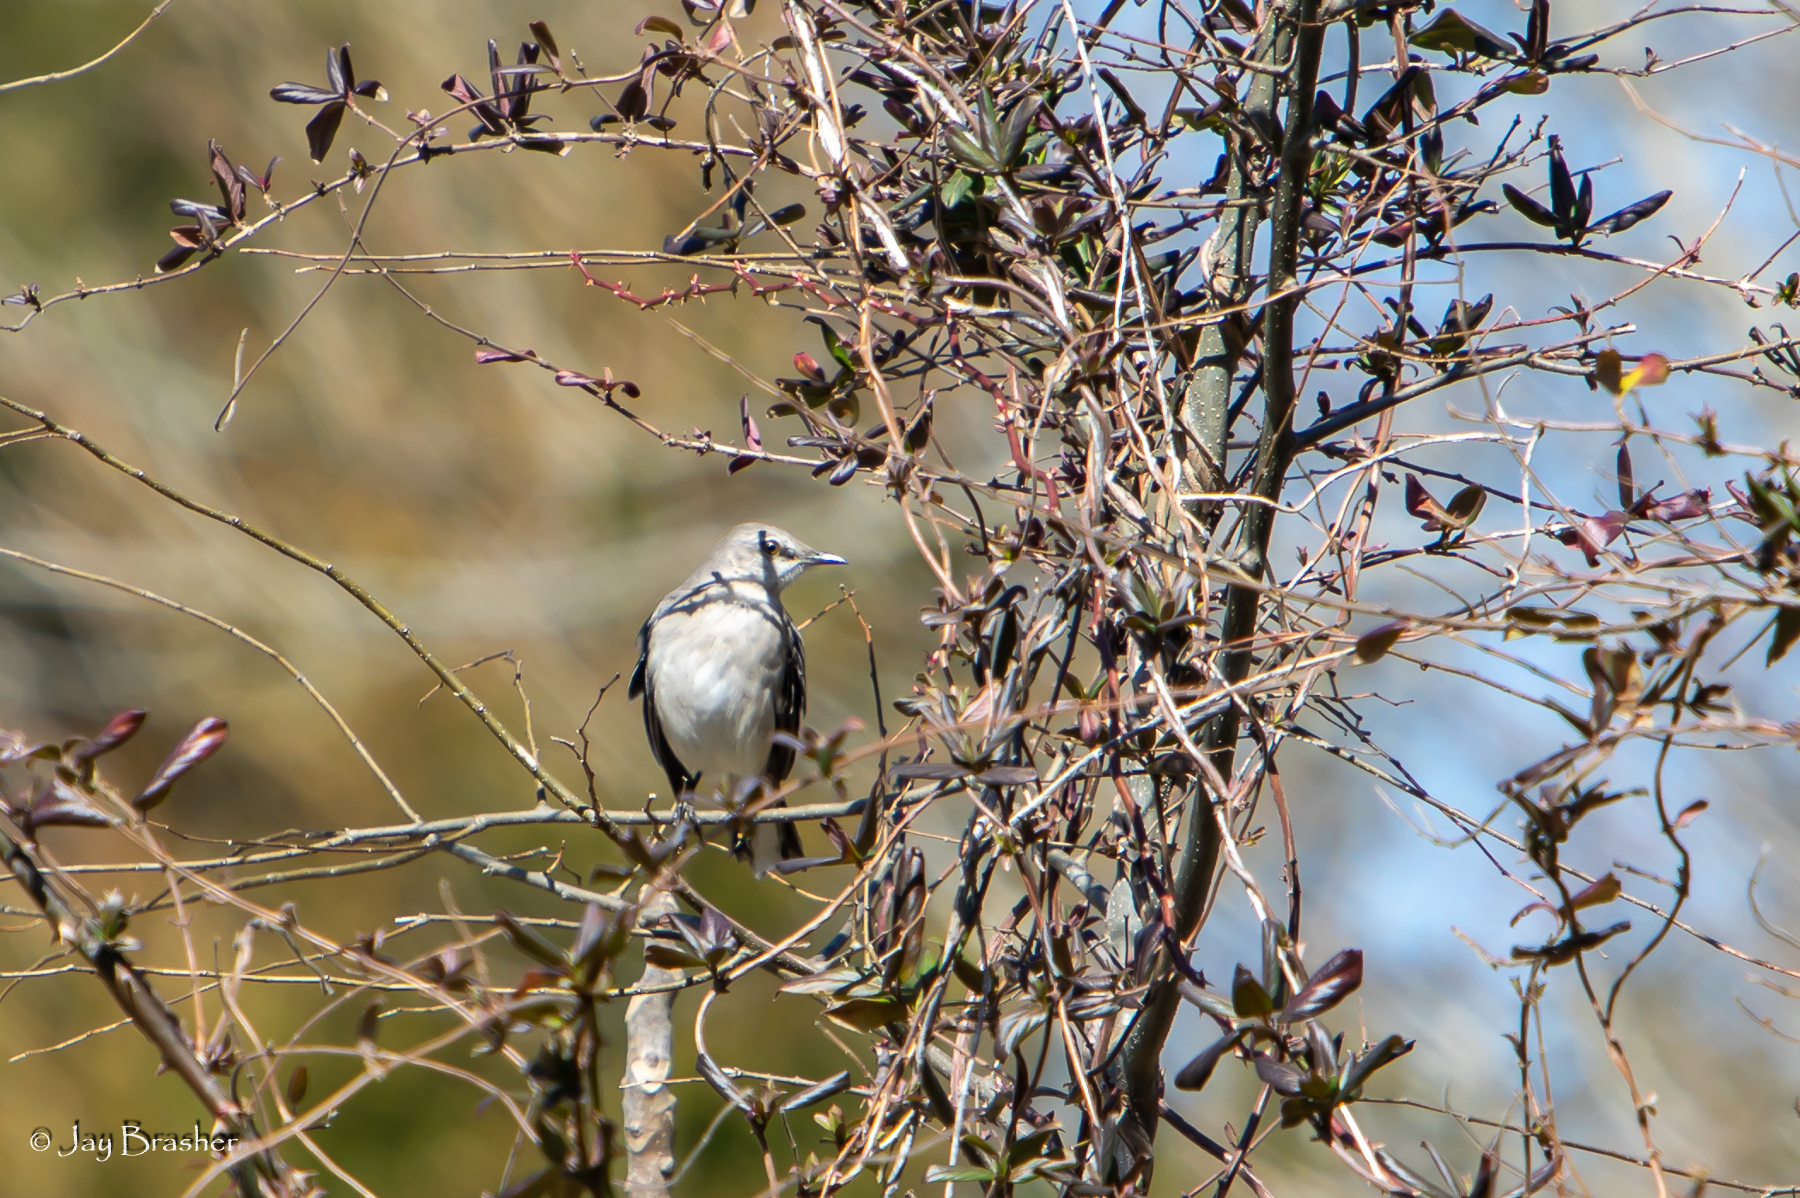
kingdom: Animalia
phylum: Chordata
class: Aves
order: Passeriformes
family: Mimidae
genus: Mimus
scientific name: Mimus polyglottos
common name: Northern mockingbird
